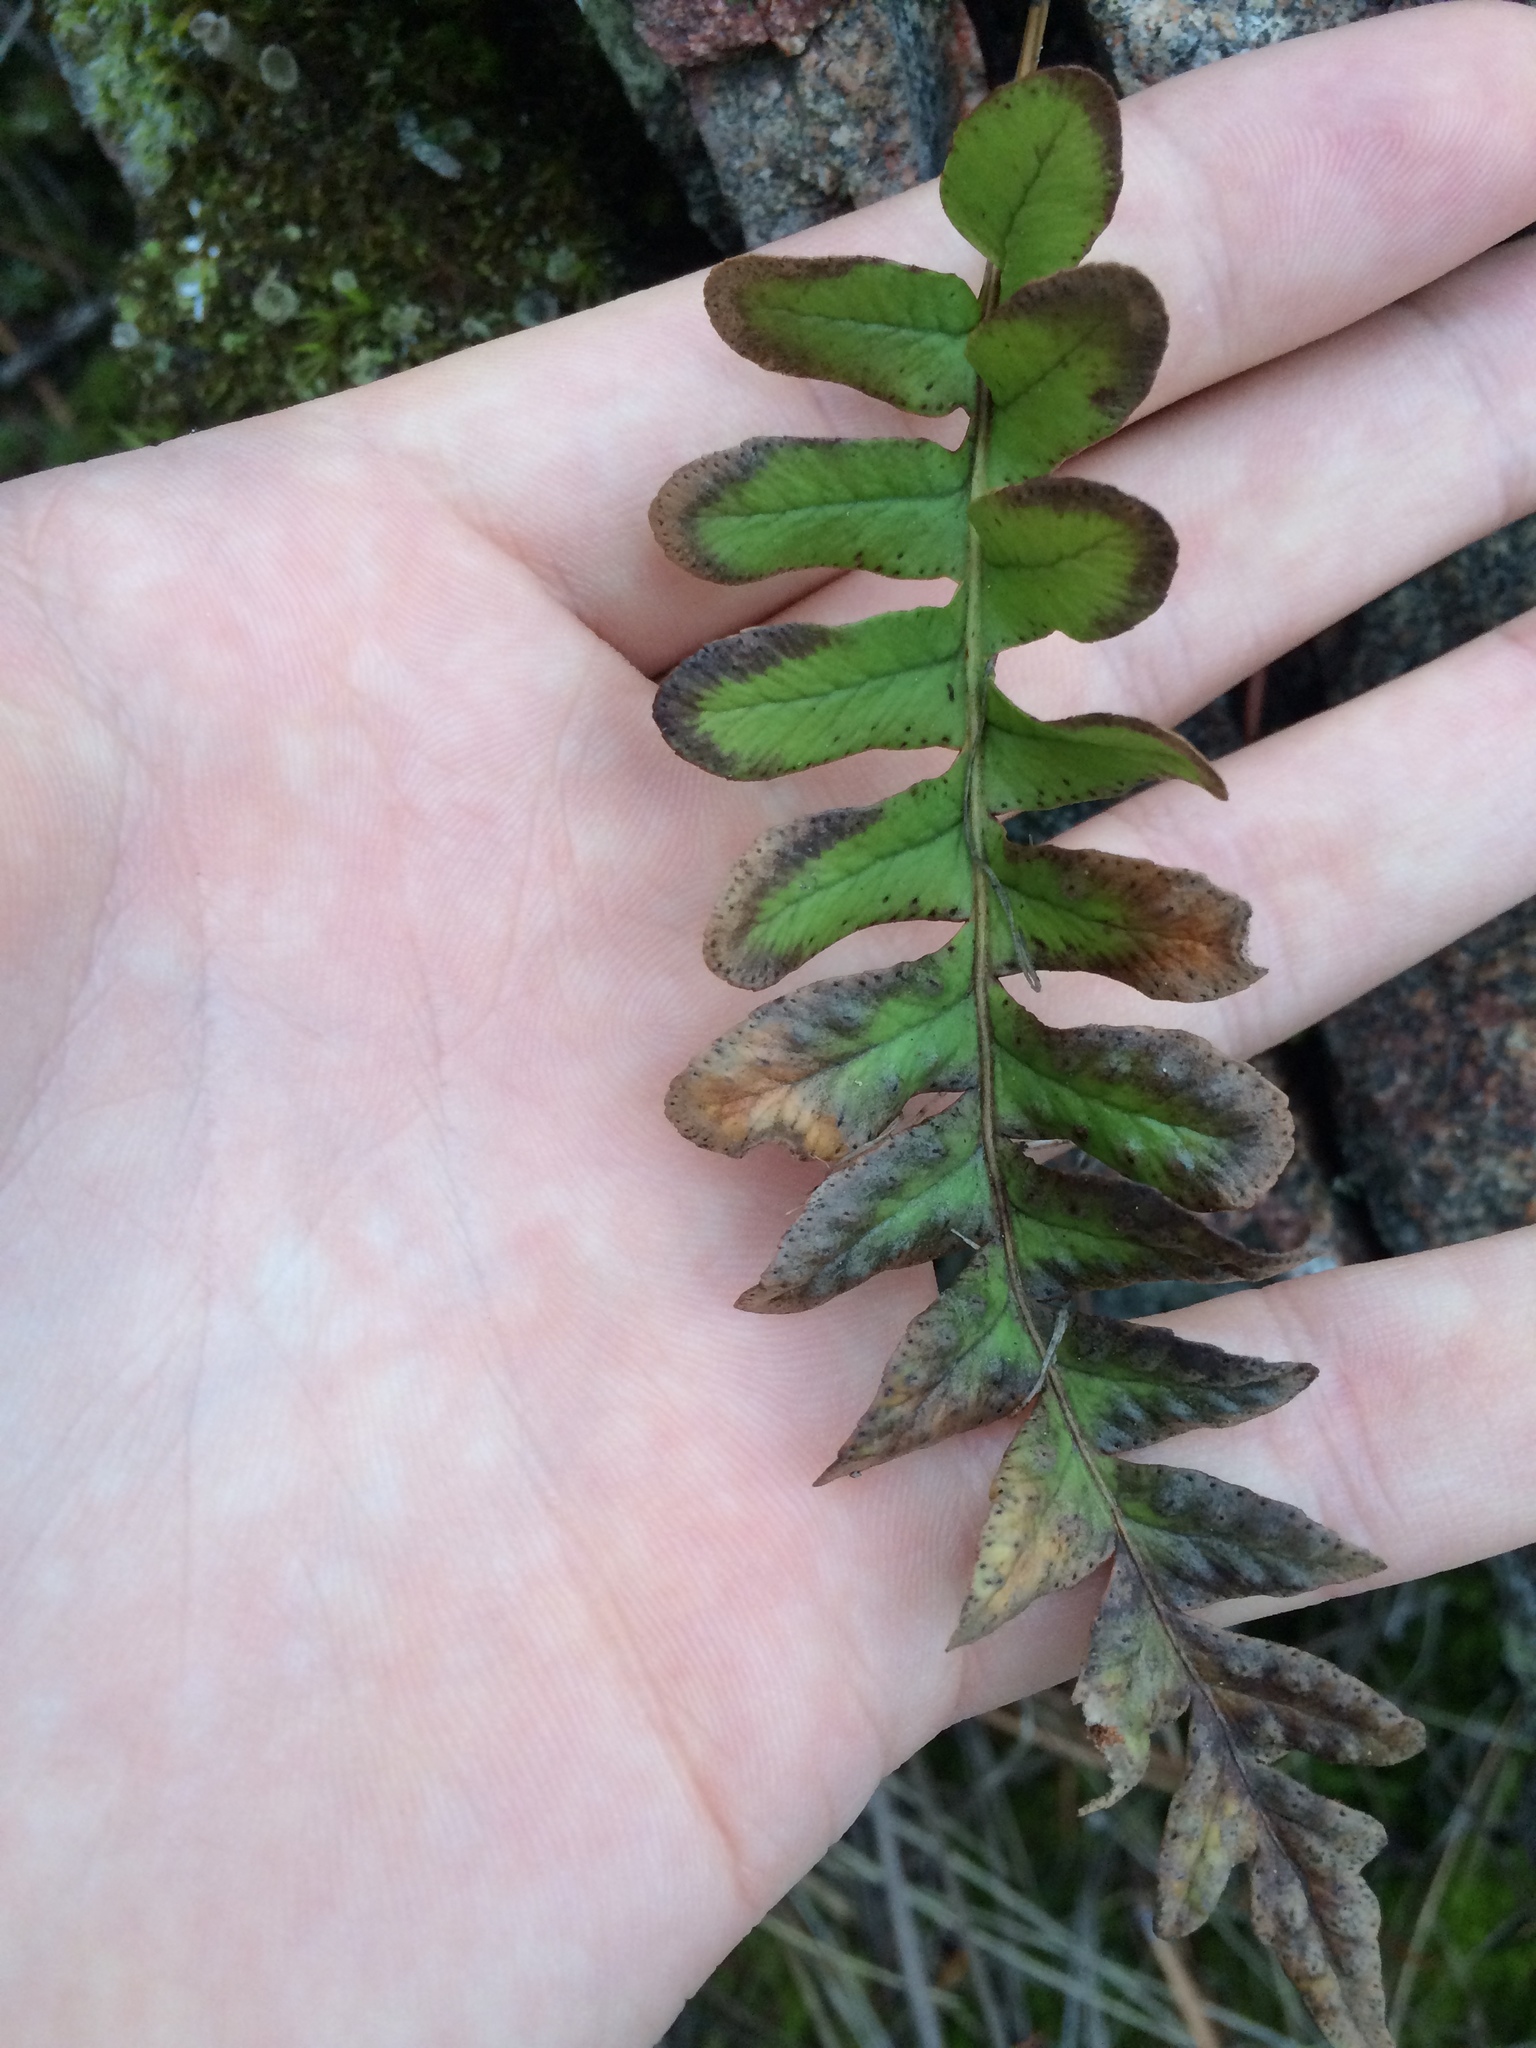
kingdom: Plantae
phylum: Tracheophyta
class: Polypodiopsida
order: Polypodiales
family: Polypodiaceae
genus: Polypodium
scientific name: Polypodium hesperium
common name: Western polypody
